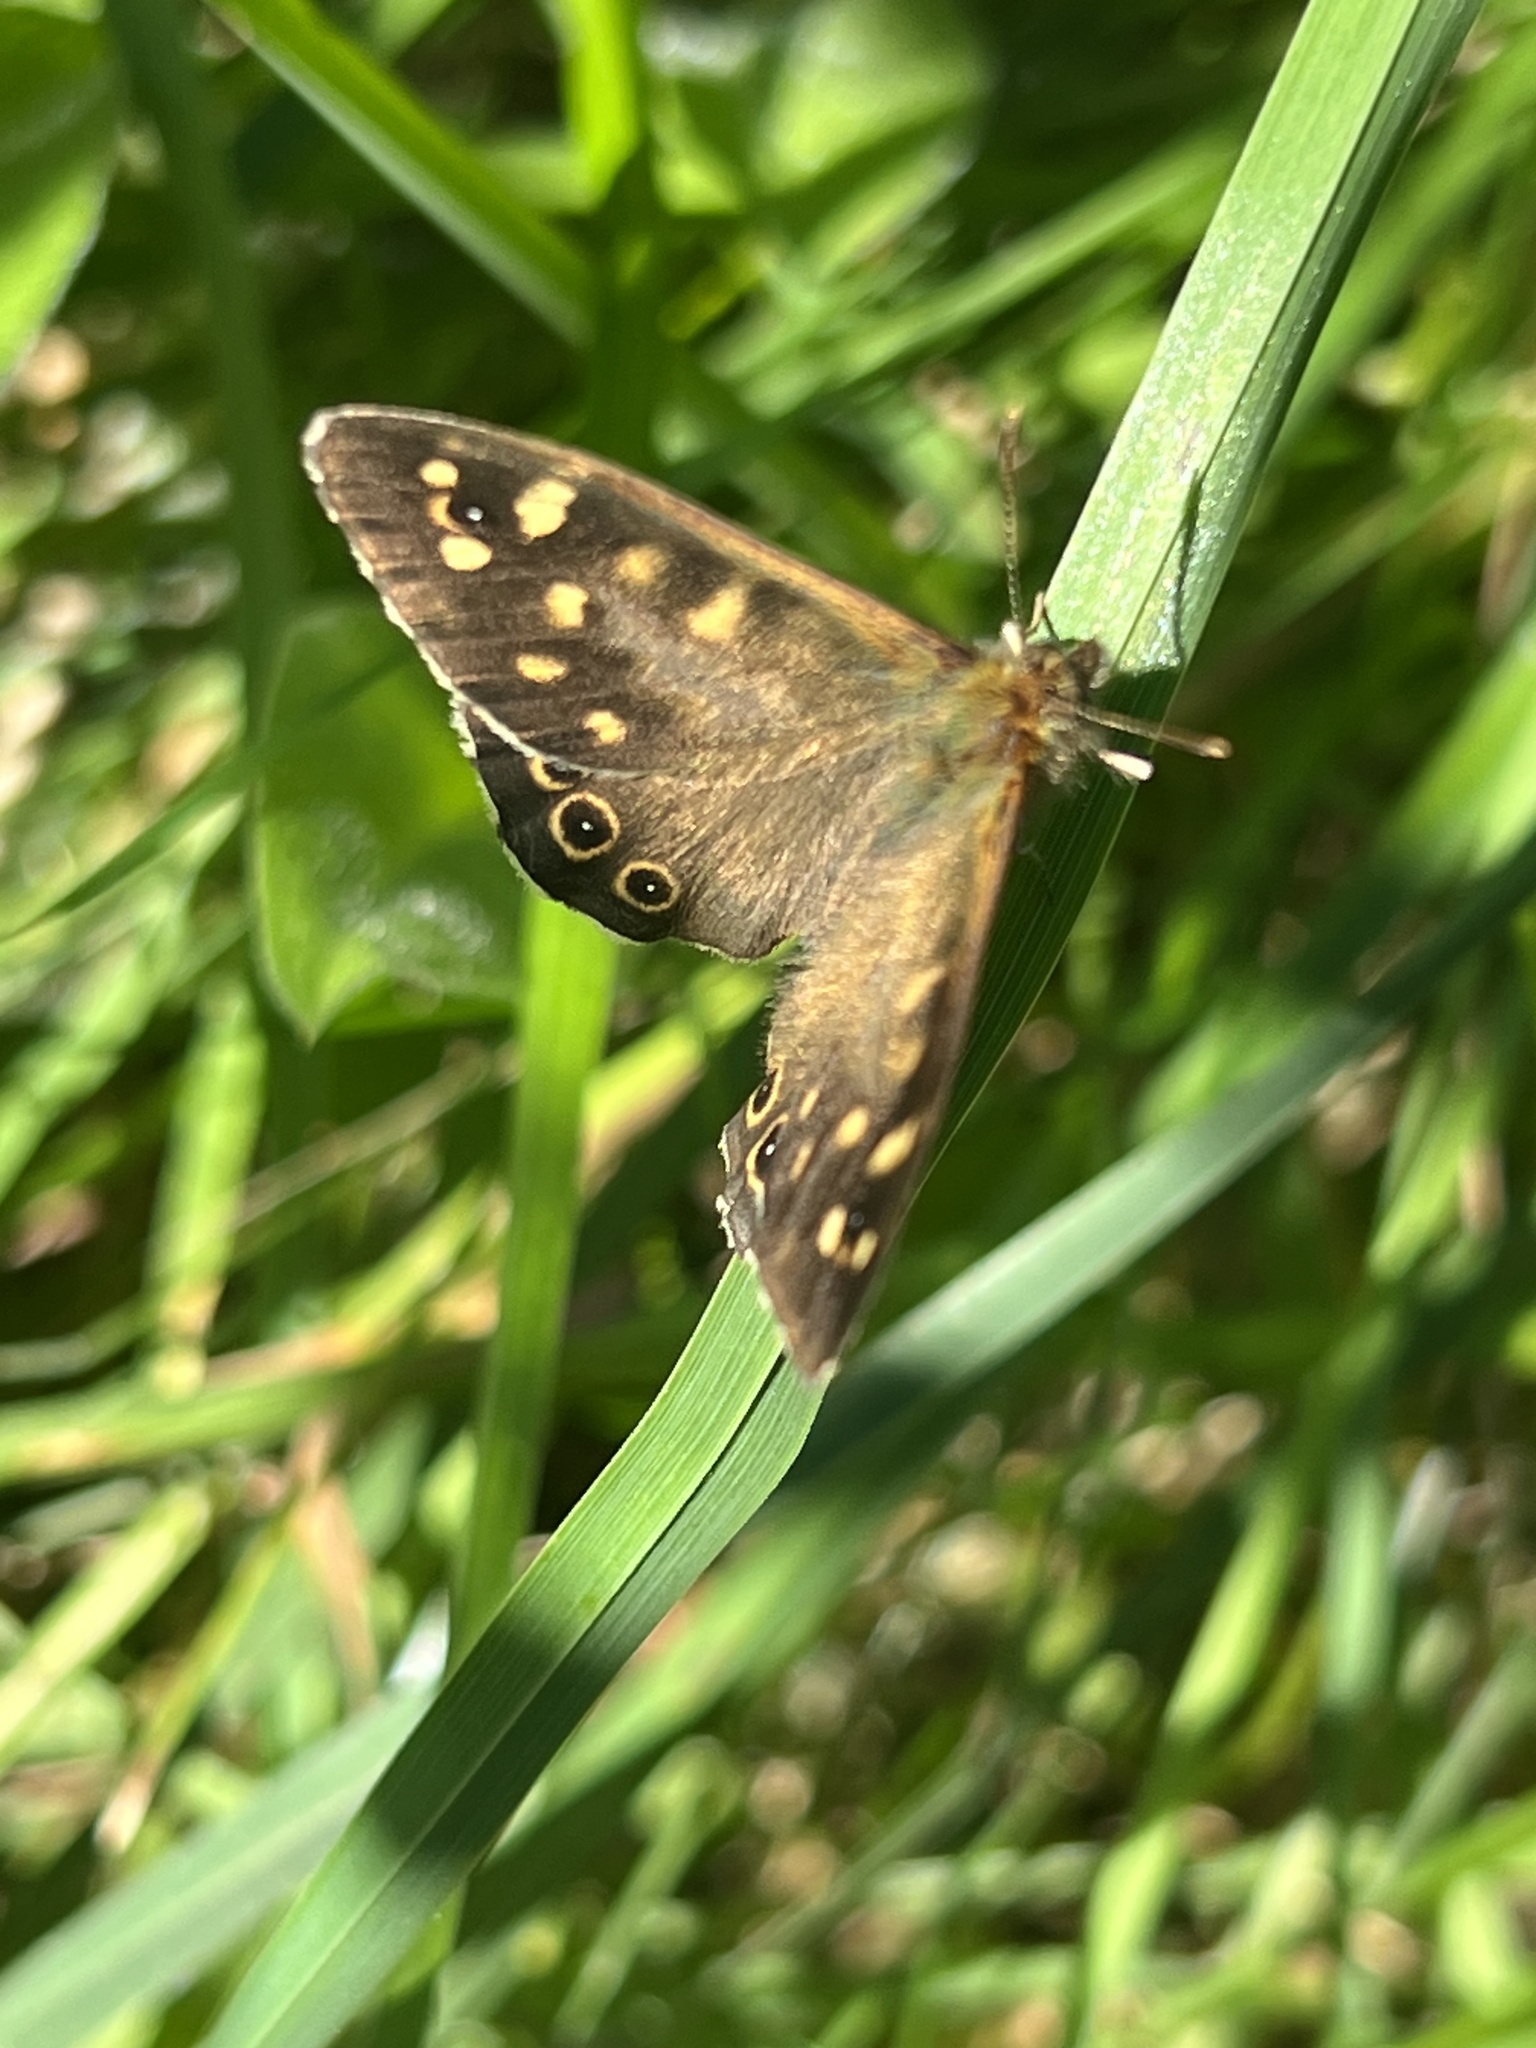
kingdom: Animalia
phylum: Arthropoda
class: Insecta
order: Lepidoptera
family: Nymphalidae
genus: Pararge
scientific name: Pararge aegeria
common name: Speckled wood
